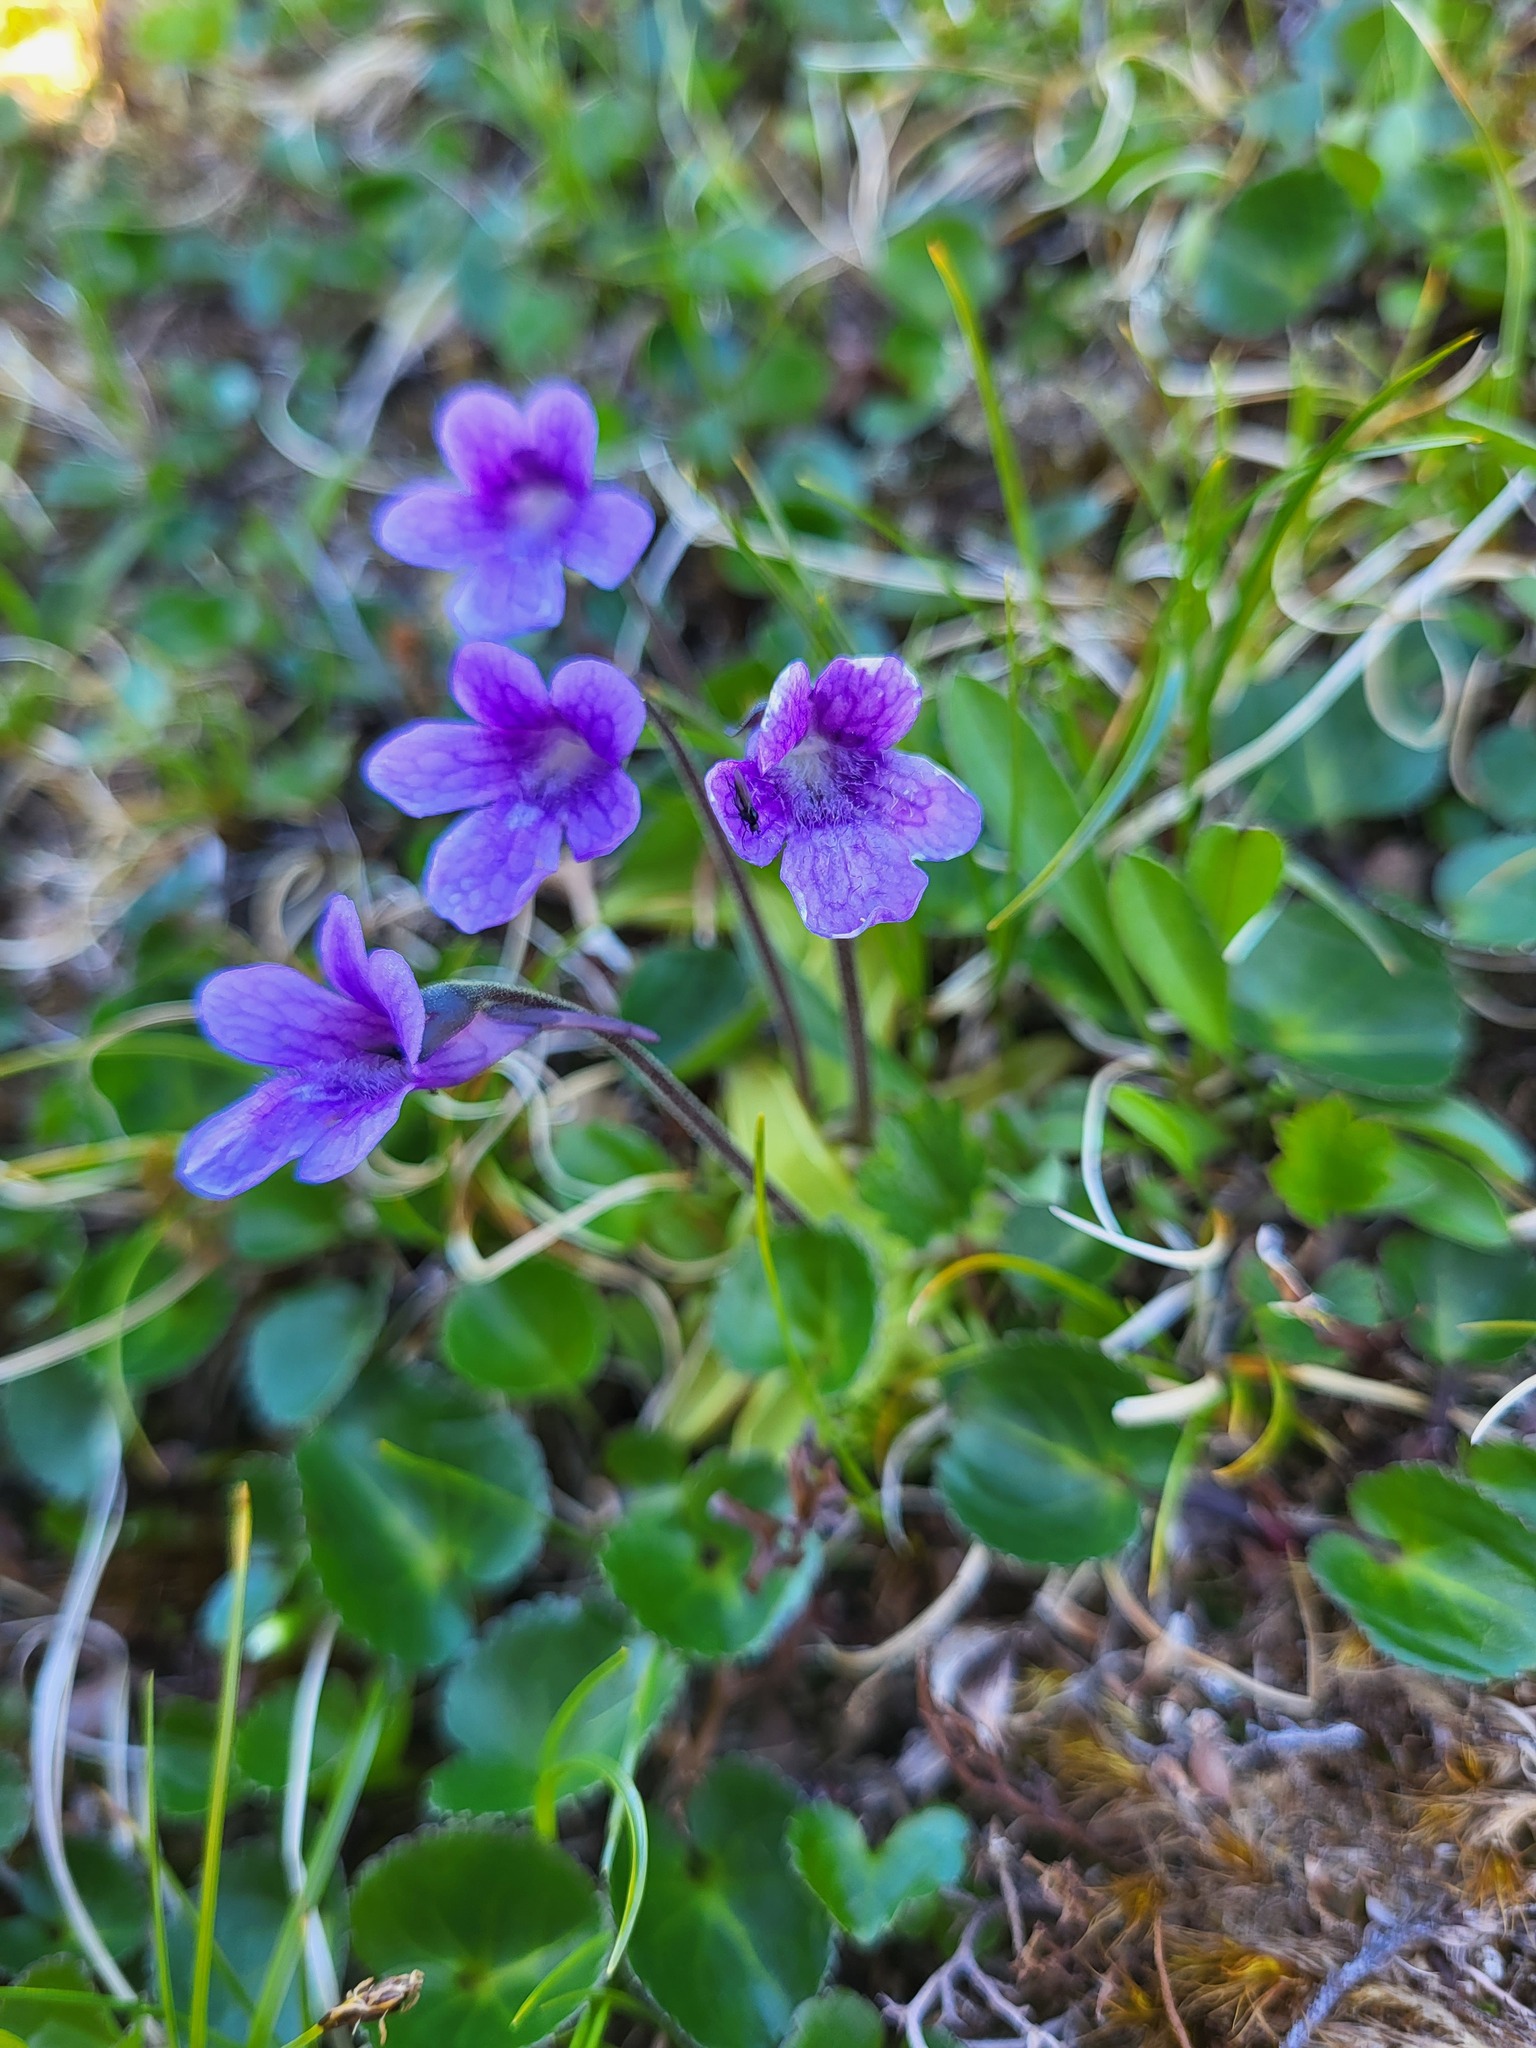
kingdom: Plantae
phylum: Tracheophyta
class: Magnoliopsida
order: Lamiales
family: Lentibulariaceae
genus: Pinguicula
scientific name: Pinguicula vulgaris
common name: Common butterwort
